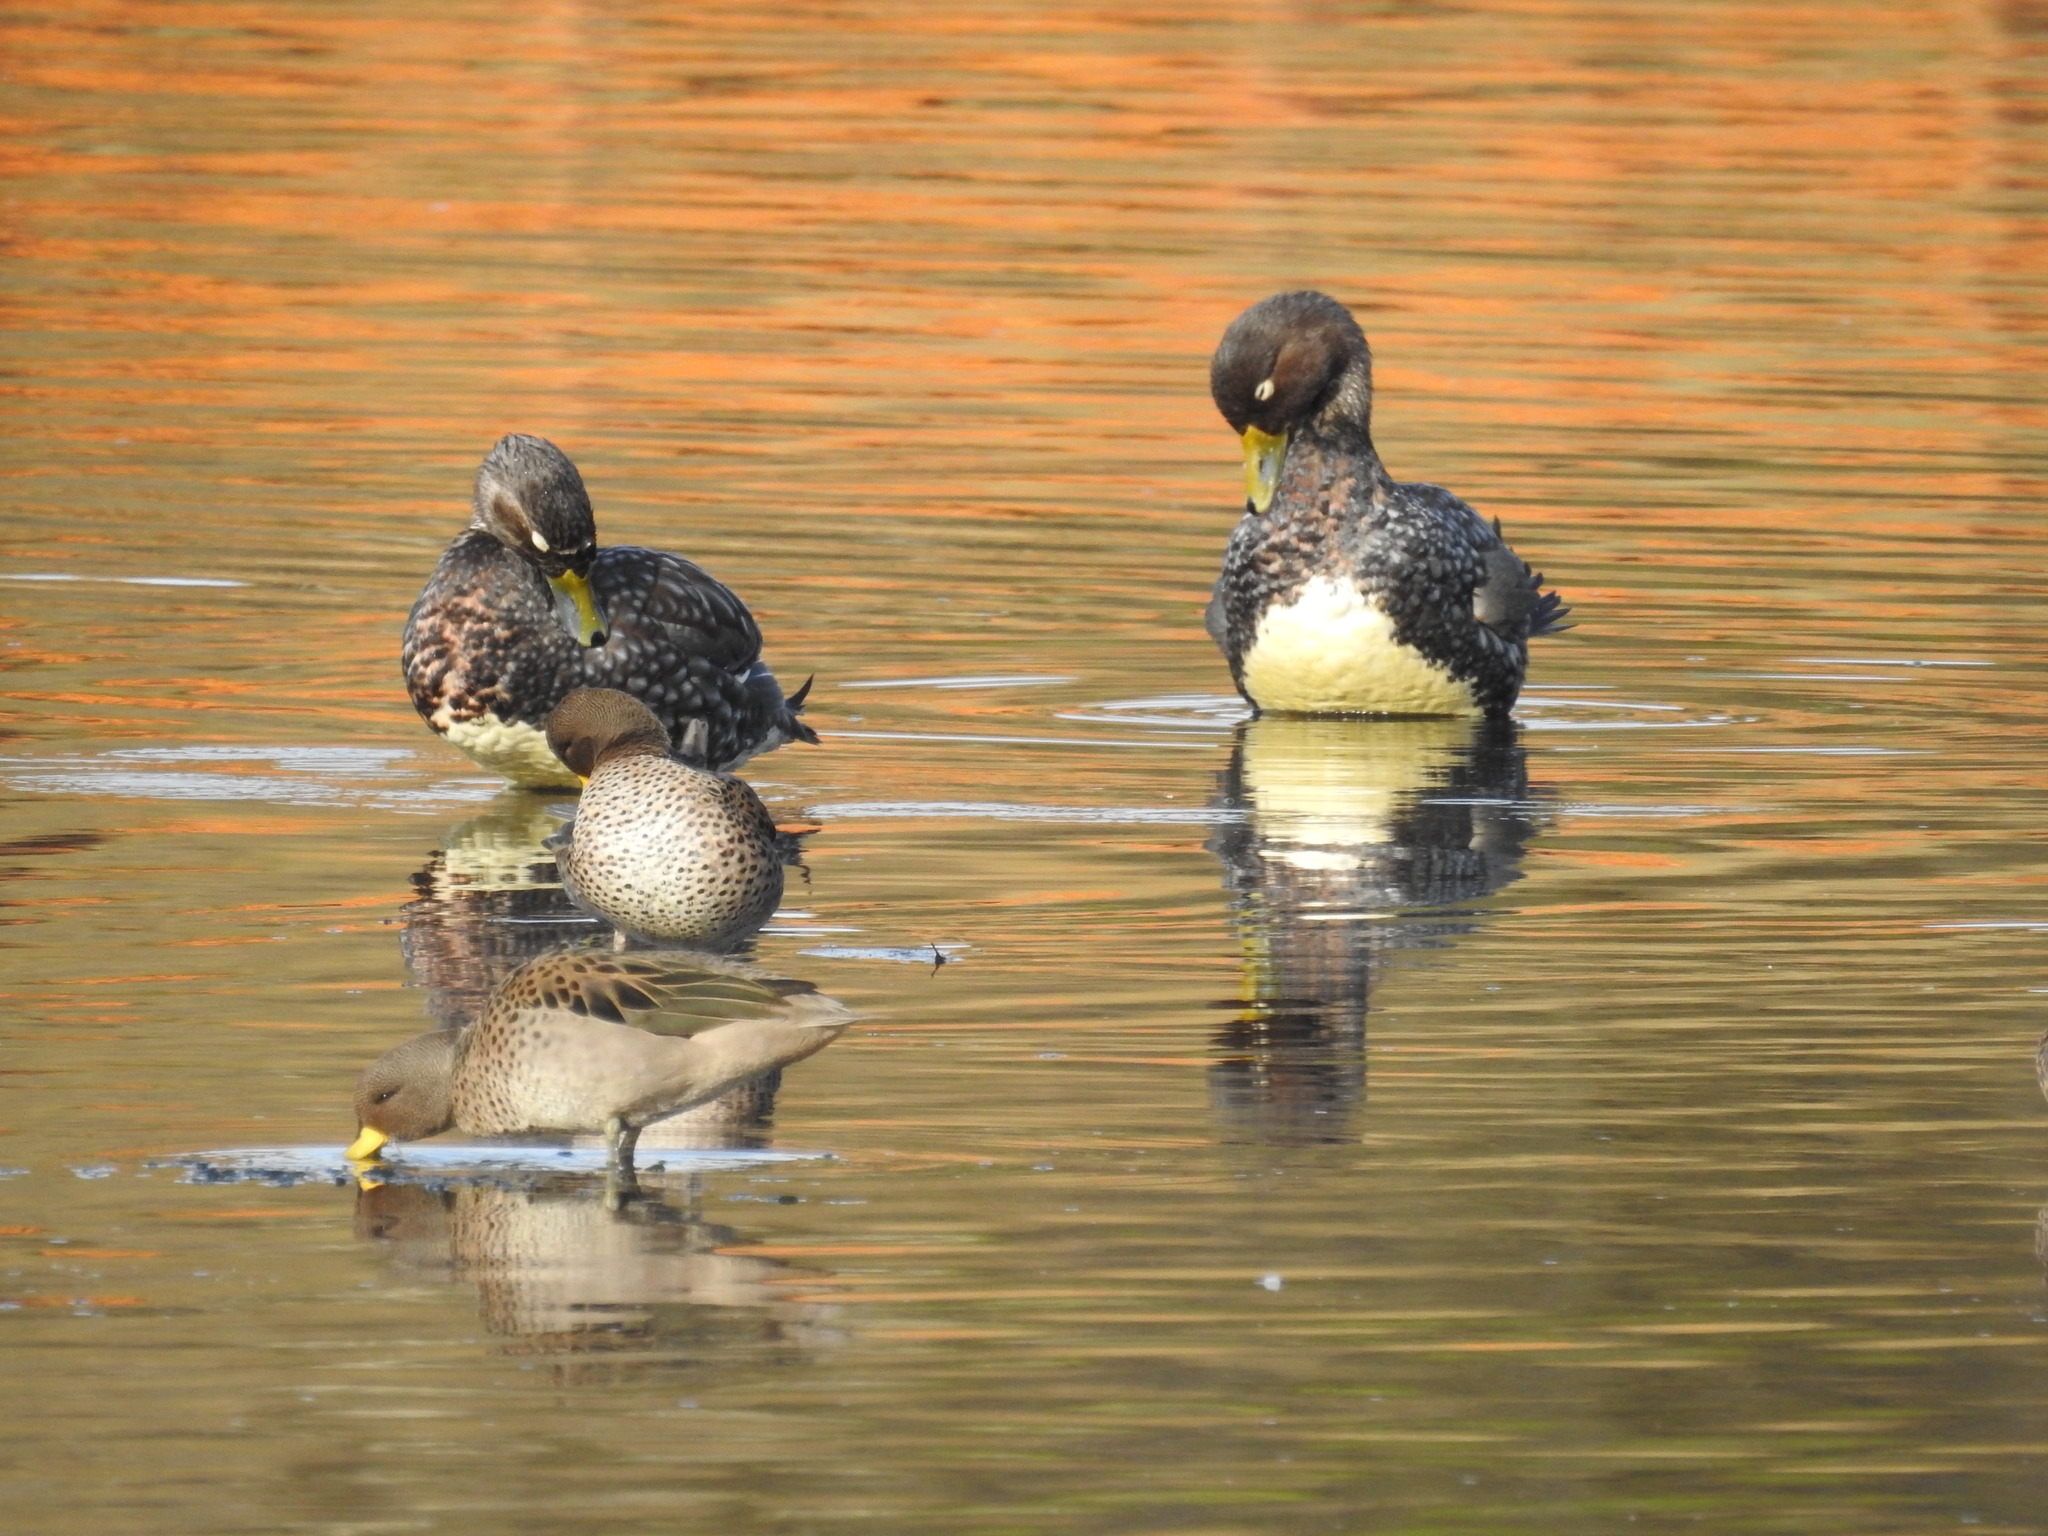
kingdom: Animalia
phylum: Chordata
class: Aves
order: Anseriformes
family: Anatidae
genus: Tachyeres
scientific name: Tachyeres patachonicus
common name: Flying steamer duck
